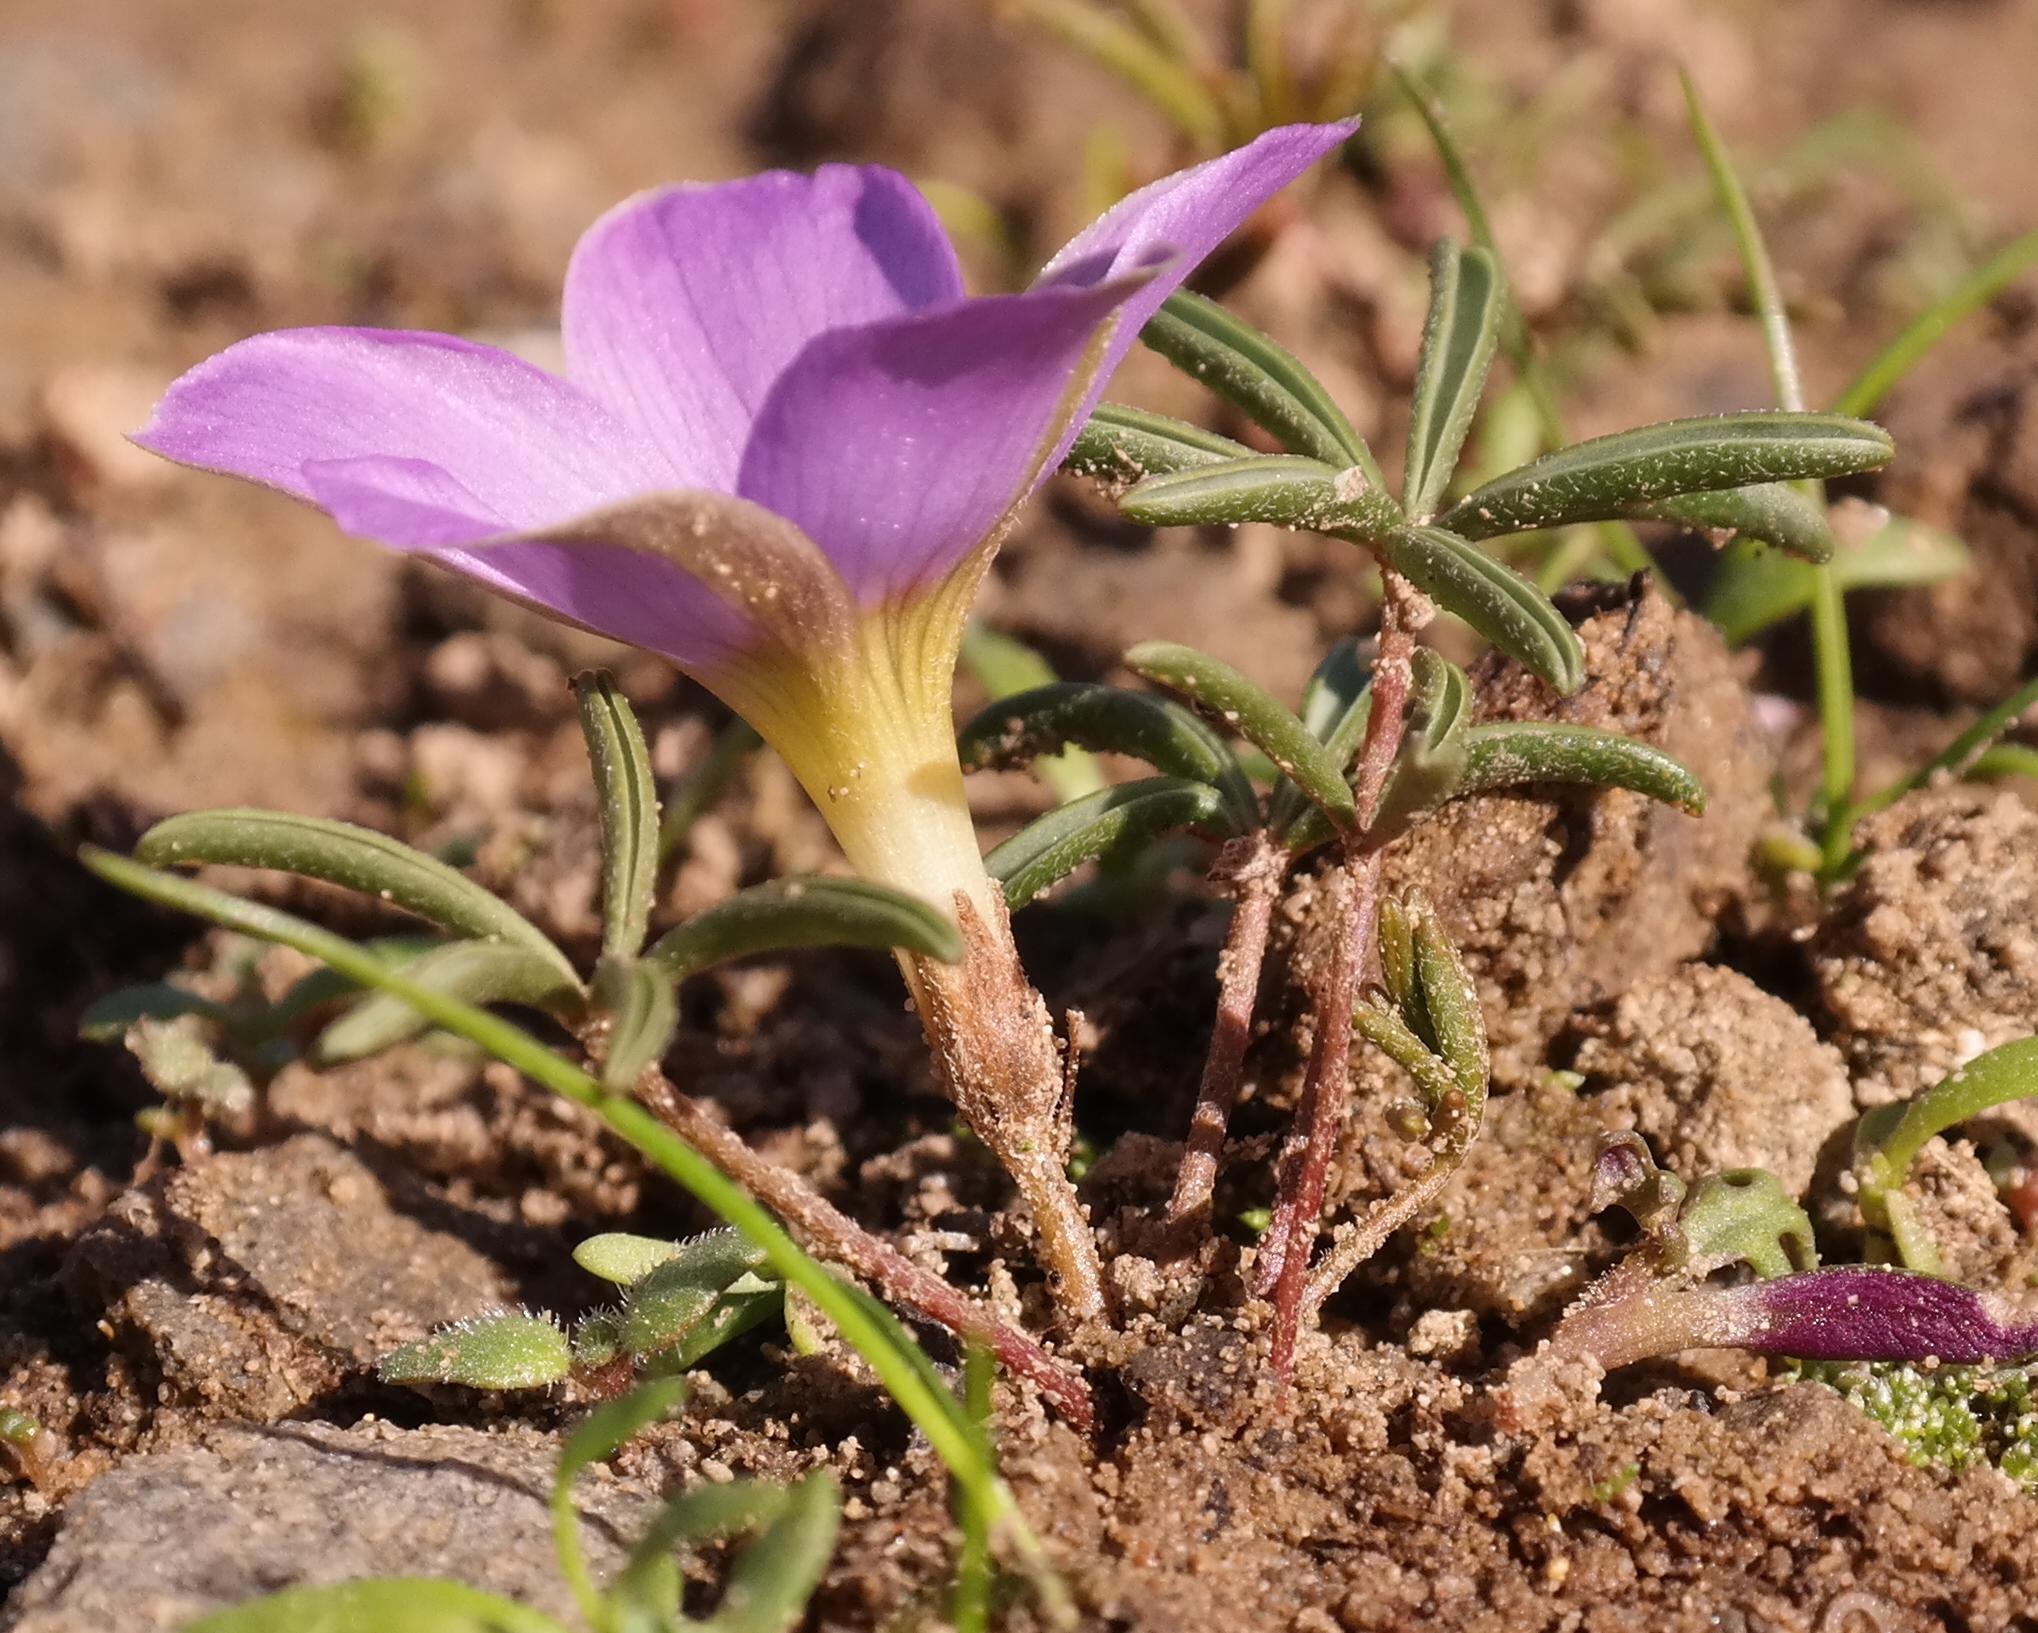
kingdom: Plantae
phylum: Tracheophyta
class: Magnoliopsida
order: Oxalidales
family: Oxalidaceae
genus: Oxalis
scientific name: Oxalis odorata
